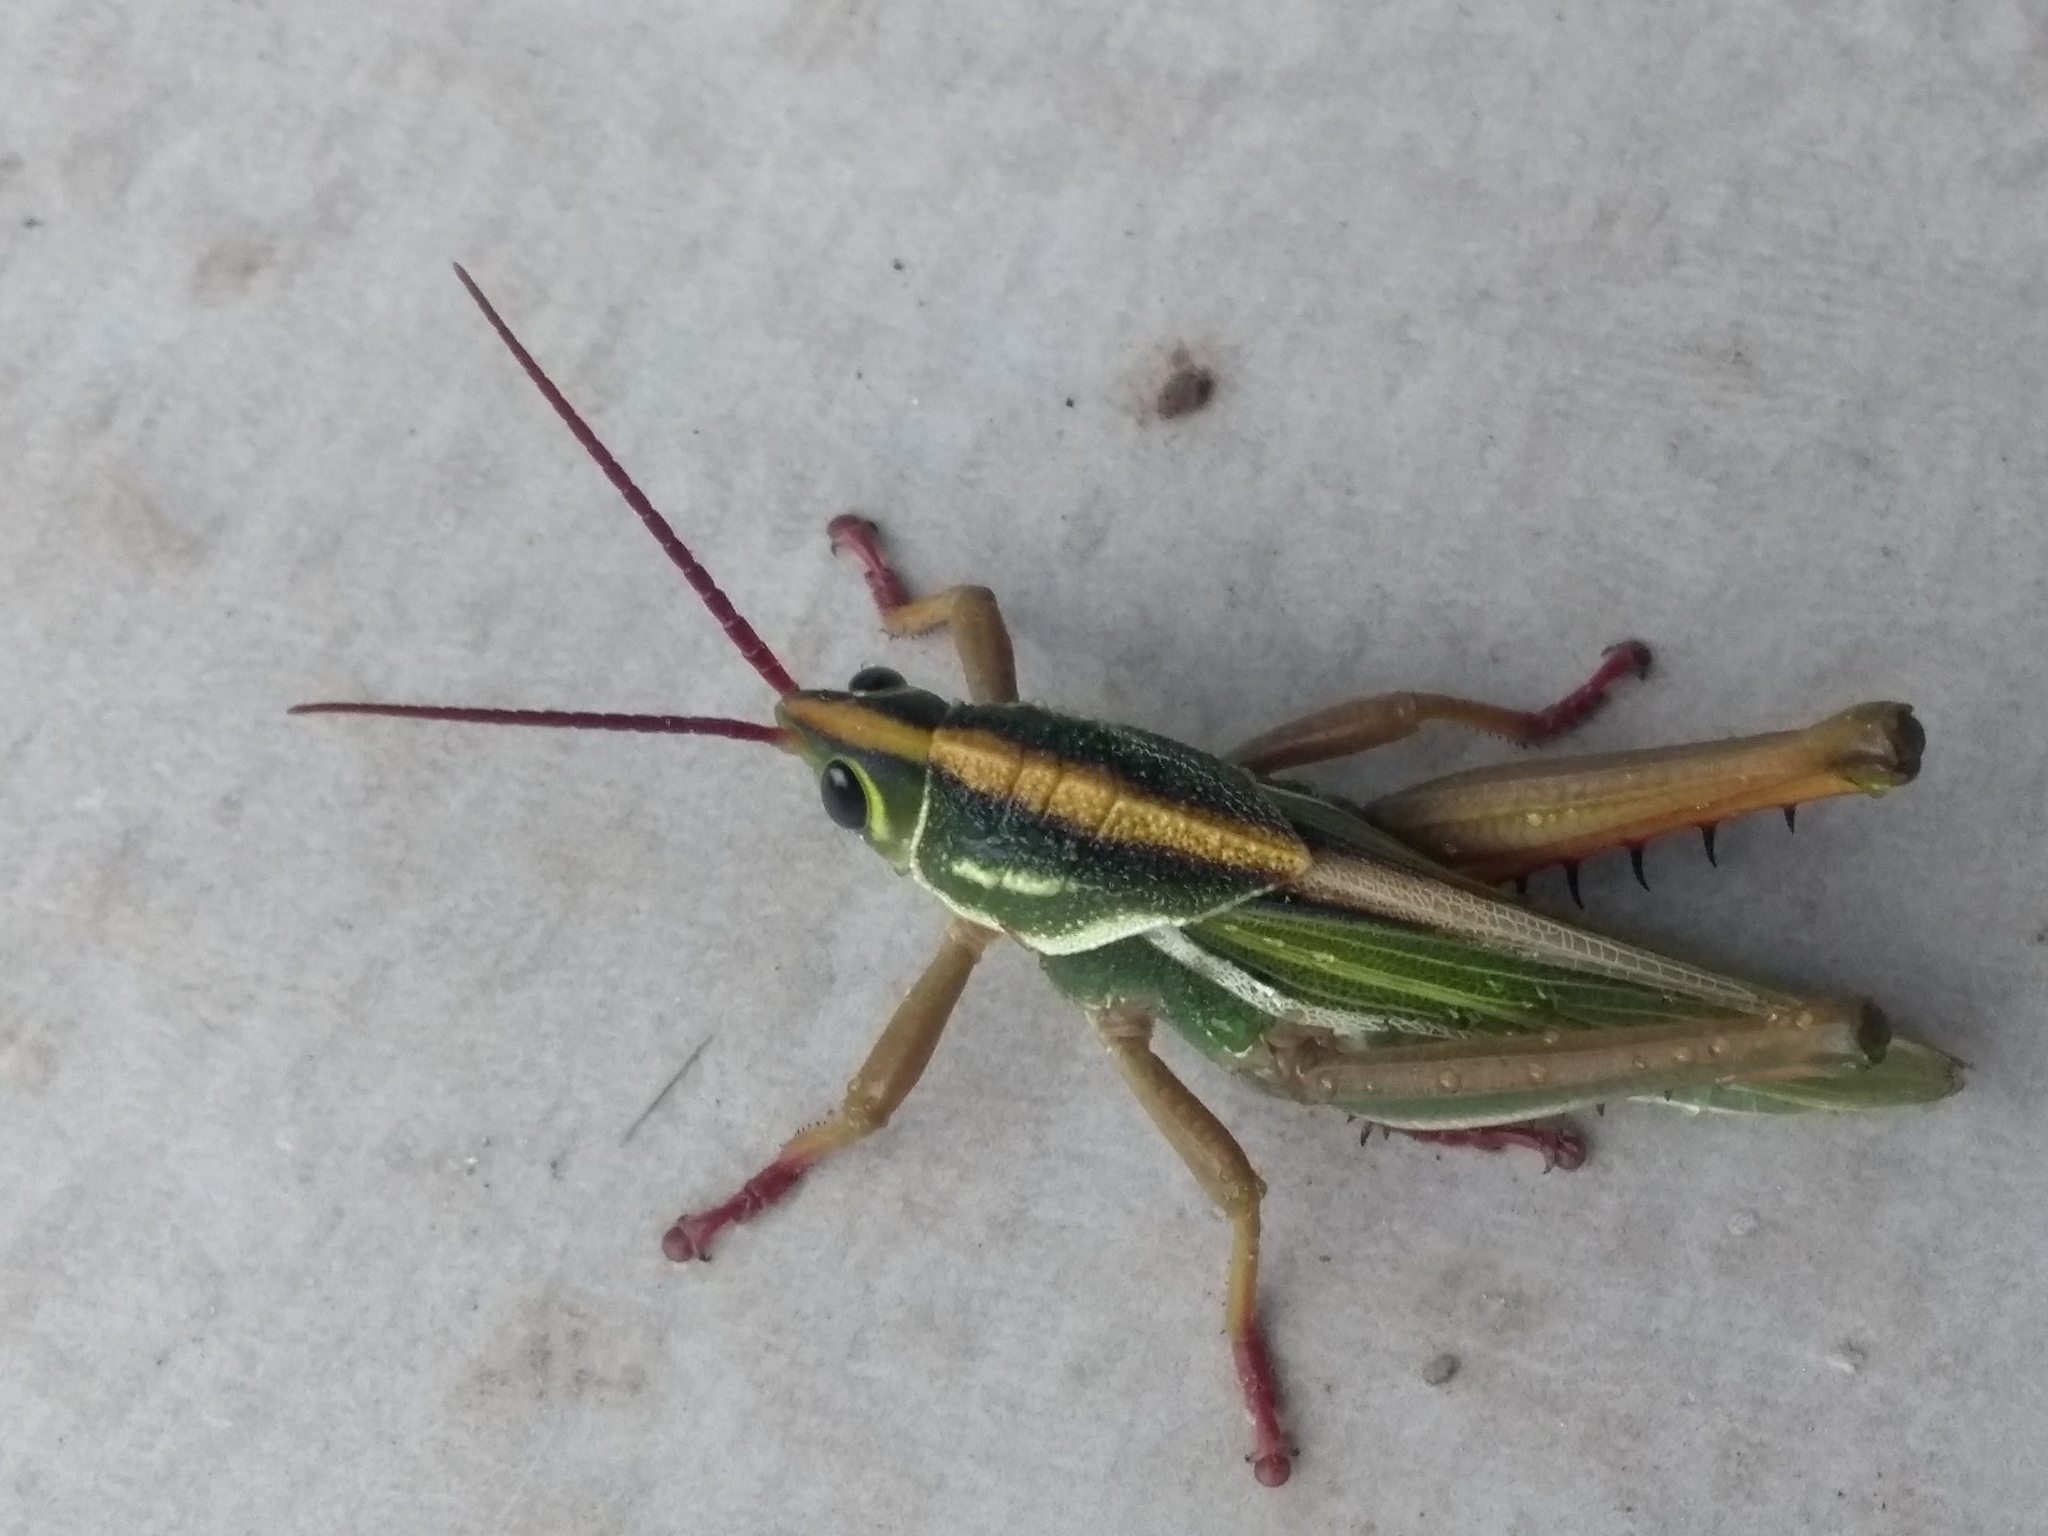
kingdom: Animalia
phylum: Arthropoda
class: Insecta
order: Orthoptera
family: Romaleidae
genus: Staleochlora
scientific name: Staleochlora viridicata
